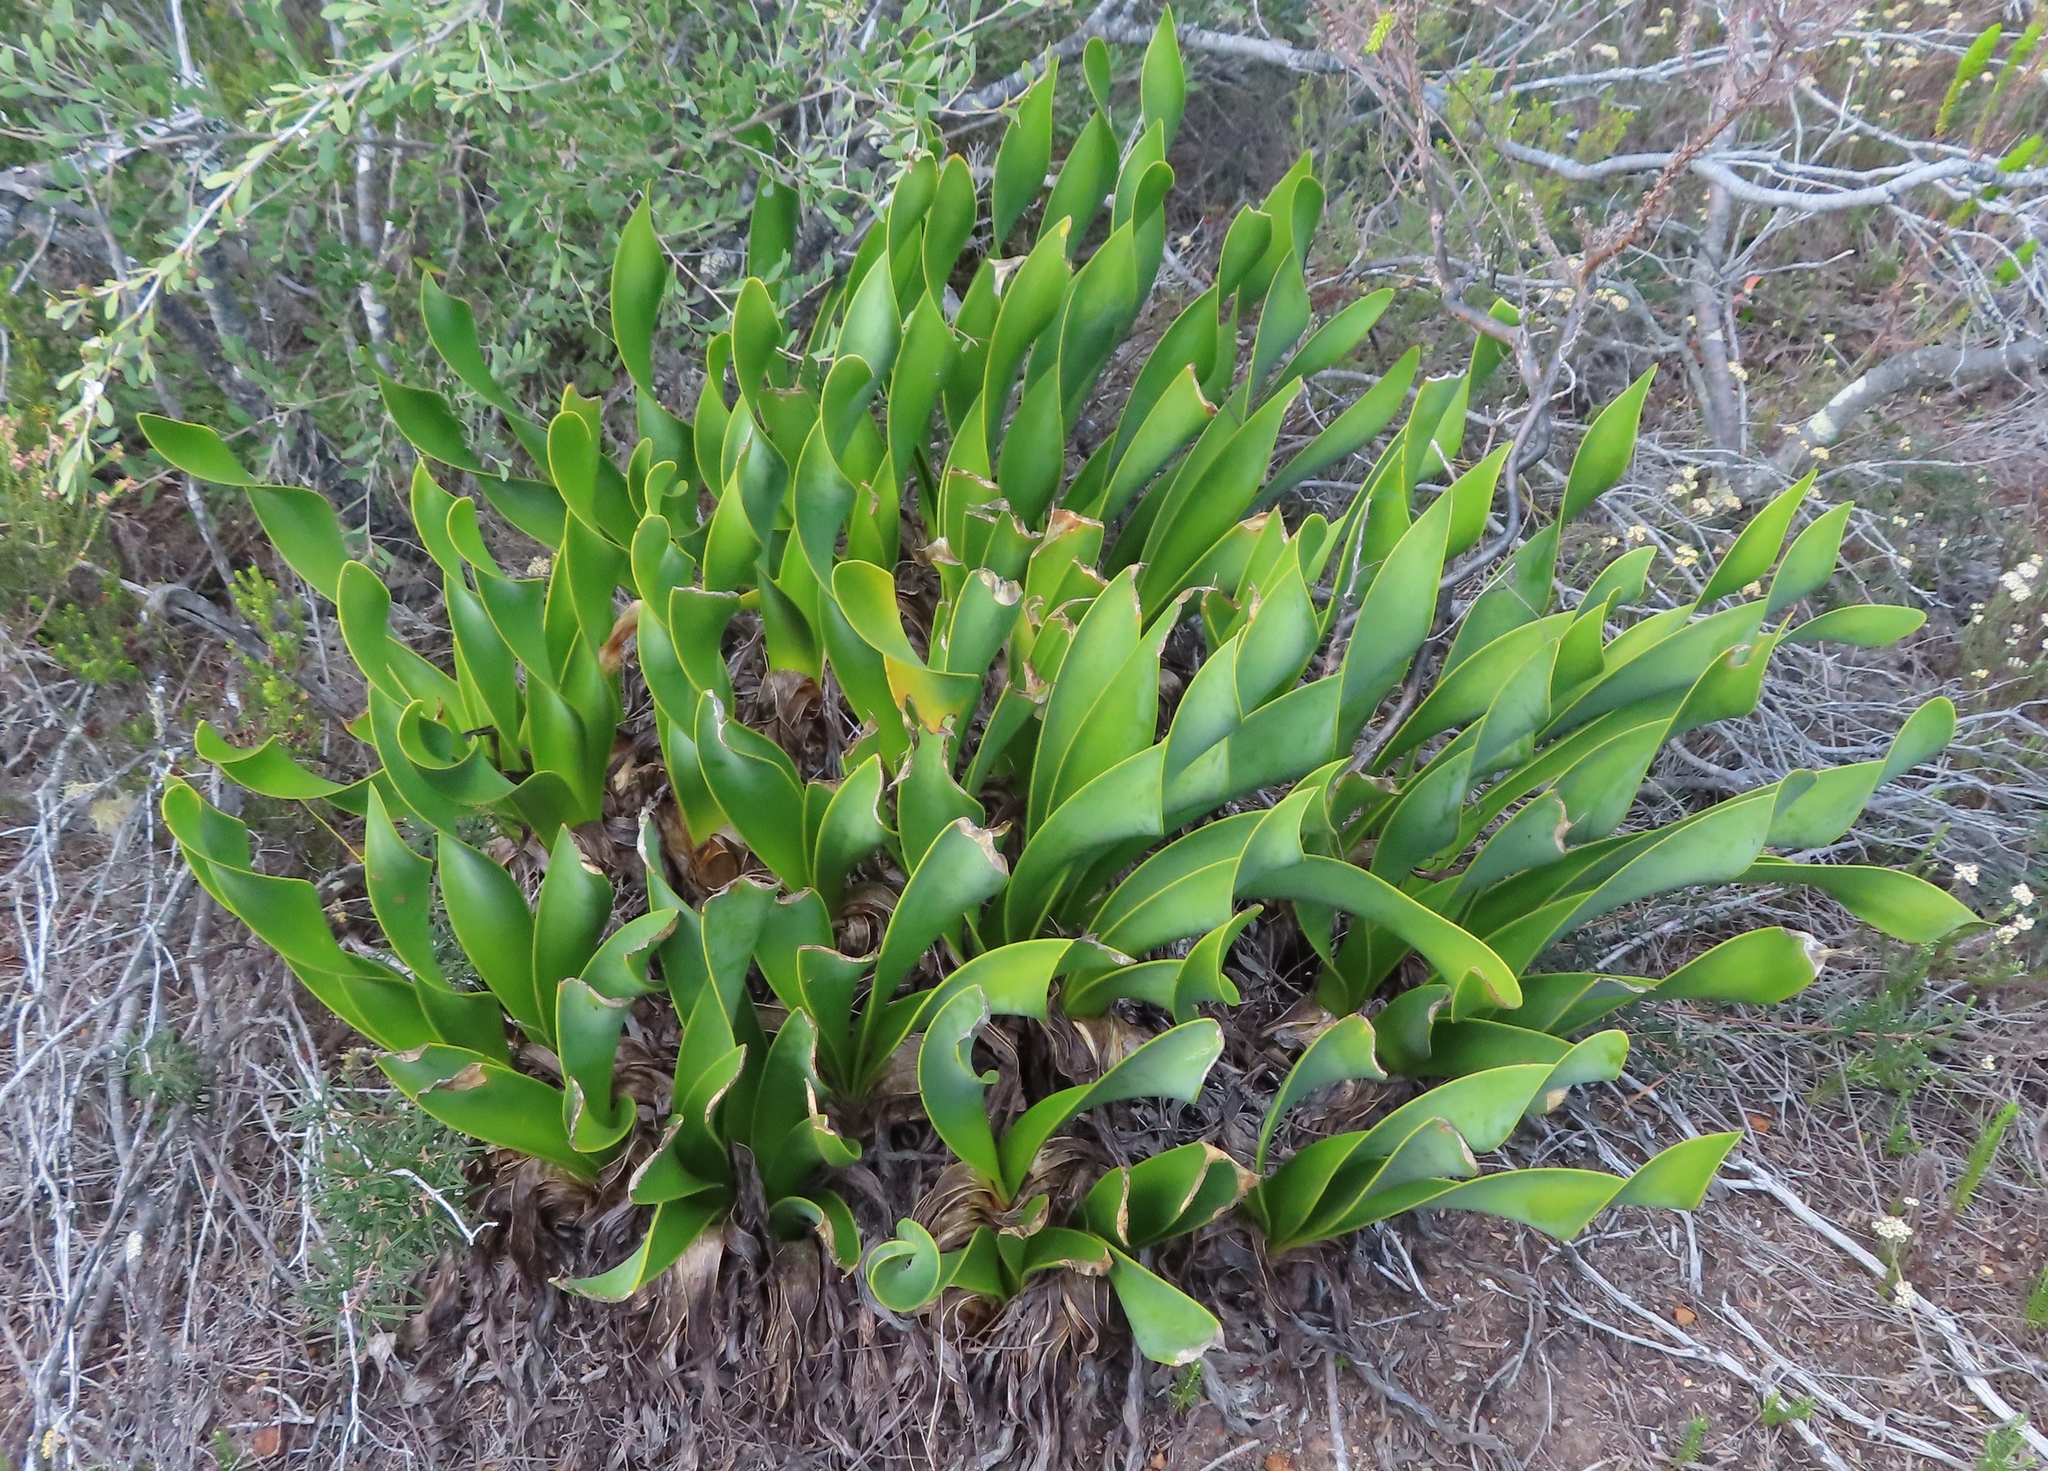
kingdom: Plantae
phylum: Tracheophyta
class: Liliopsida
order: Asparagales
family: Amaryllidaceae
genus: Cyrtanthus
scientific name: Cyrtanthus carneus
